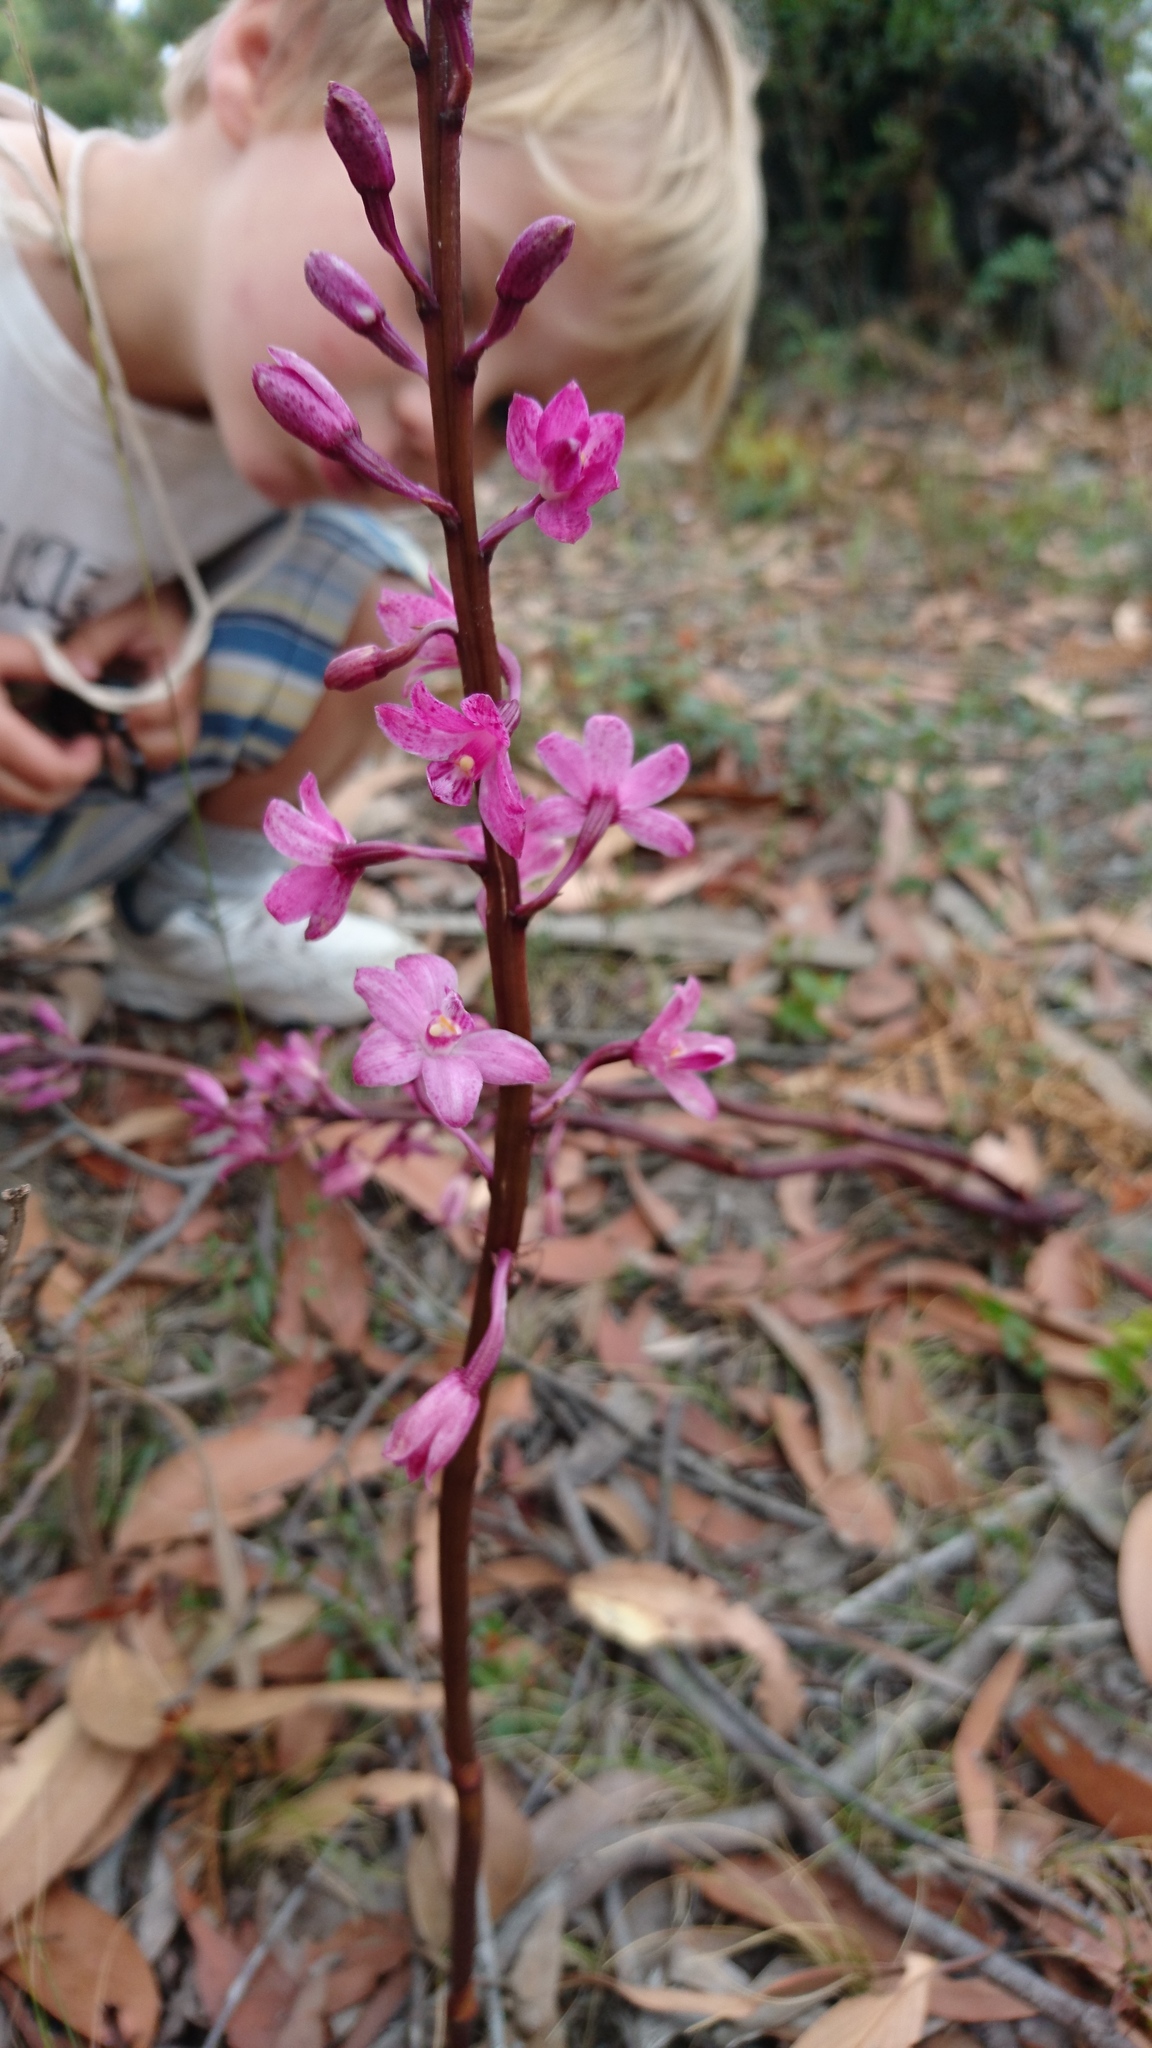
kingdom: Plantae
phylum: Tracheophyta
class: Liliopsida
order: Asparagales
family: Orchidaceae
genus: Dipodium
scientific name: Dipodium roseum
